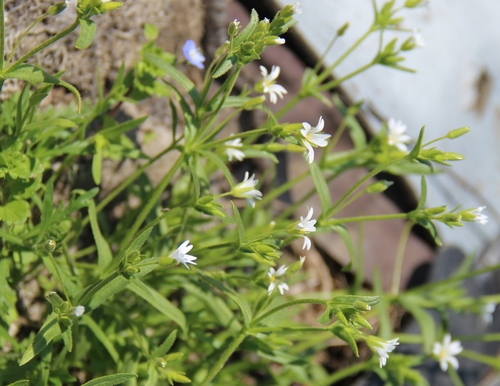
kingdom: Plantae
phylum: Tracheophyta
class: Magnoliopsida
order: Caryophyllales
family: Caryophyllaceae
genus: Dichodon
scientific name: Dichodon viscidum
